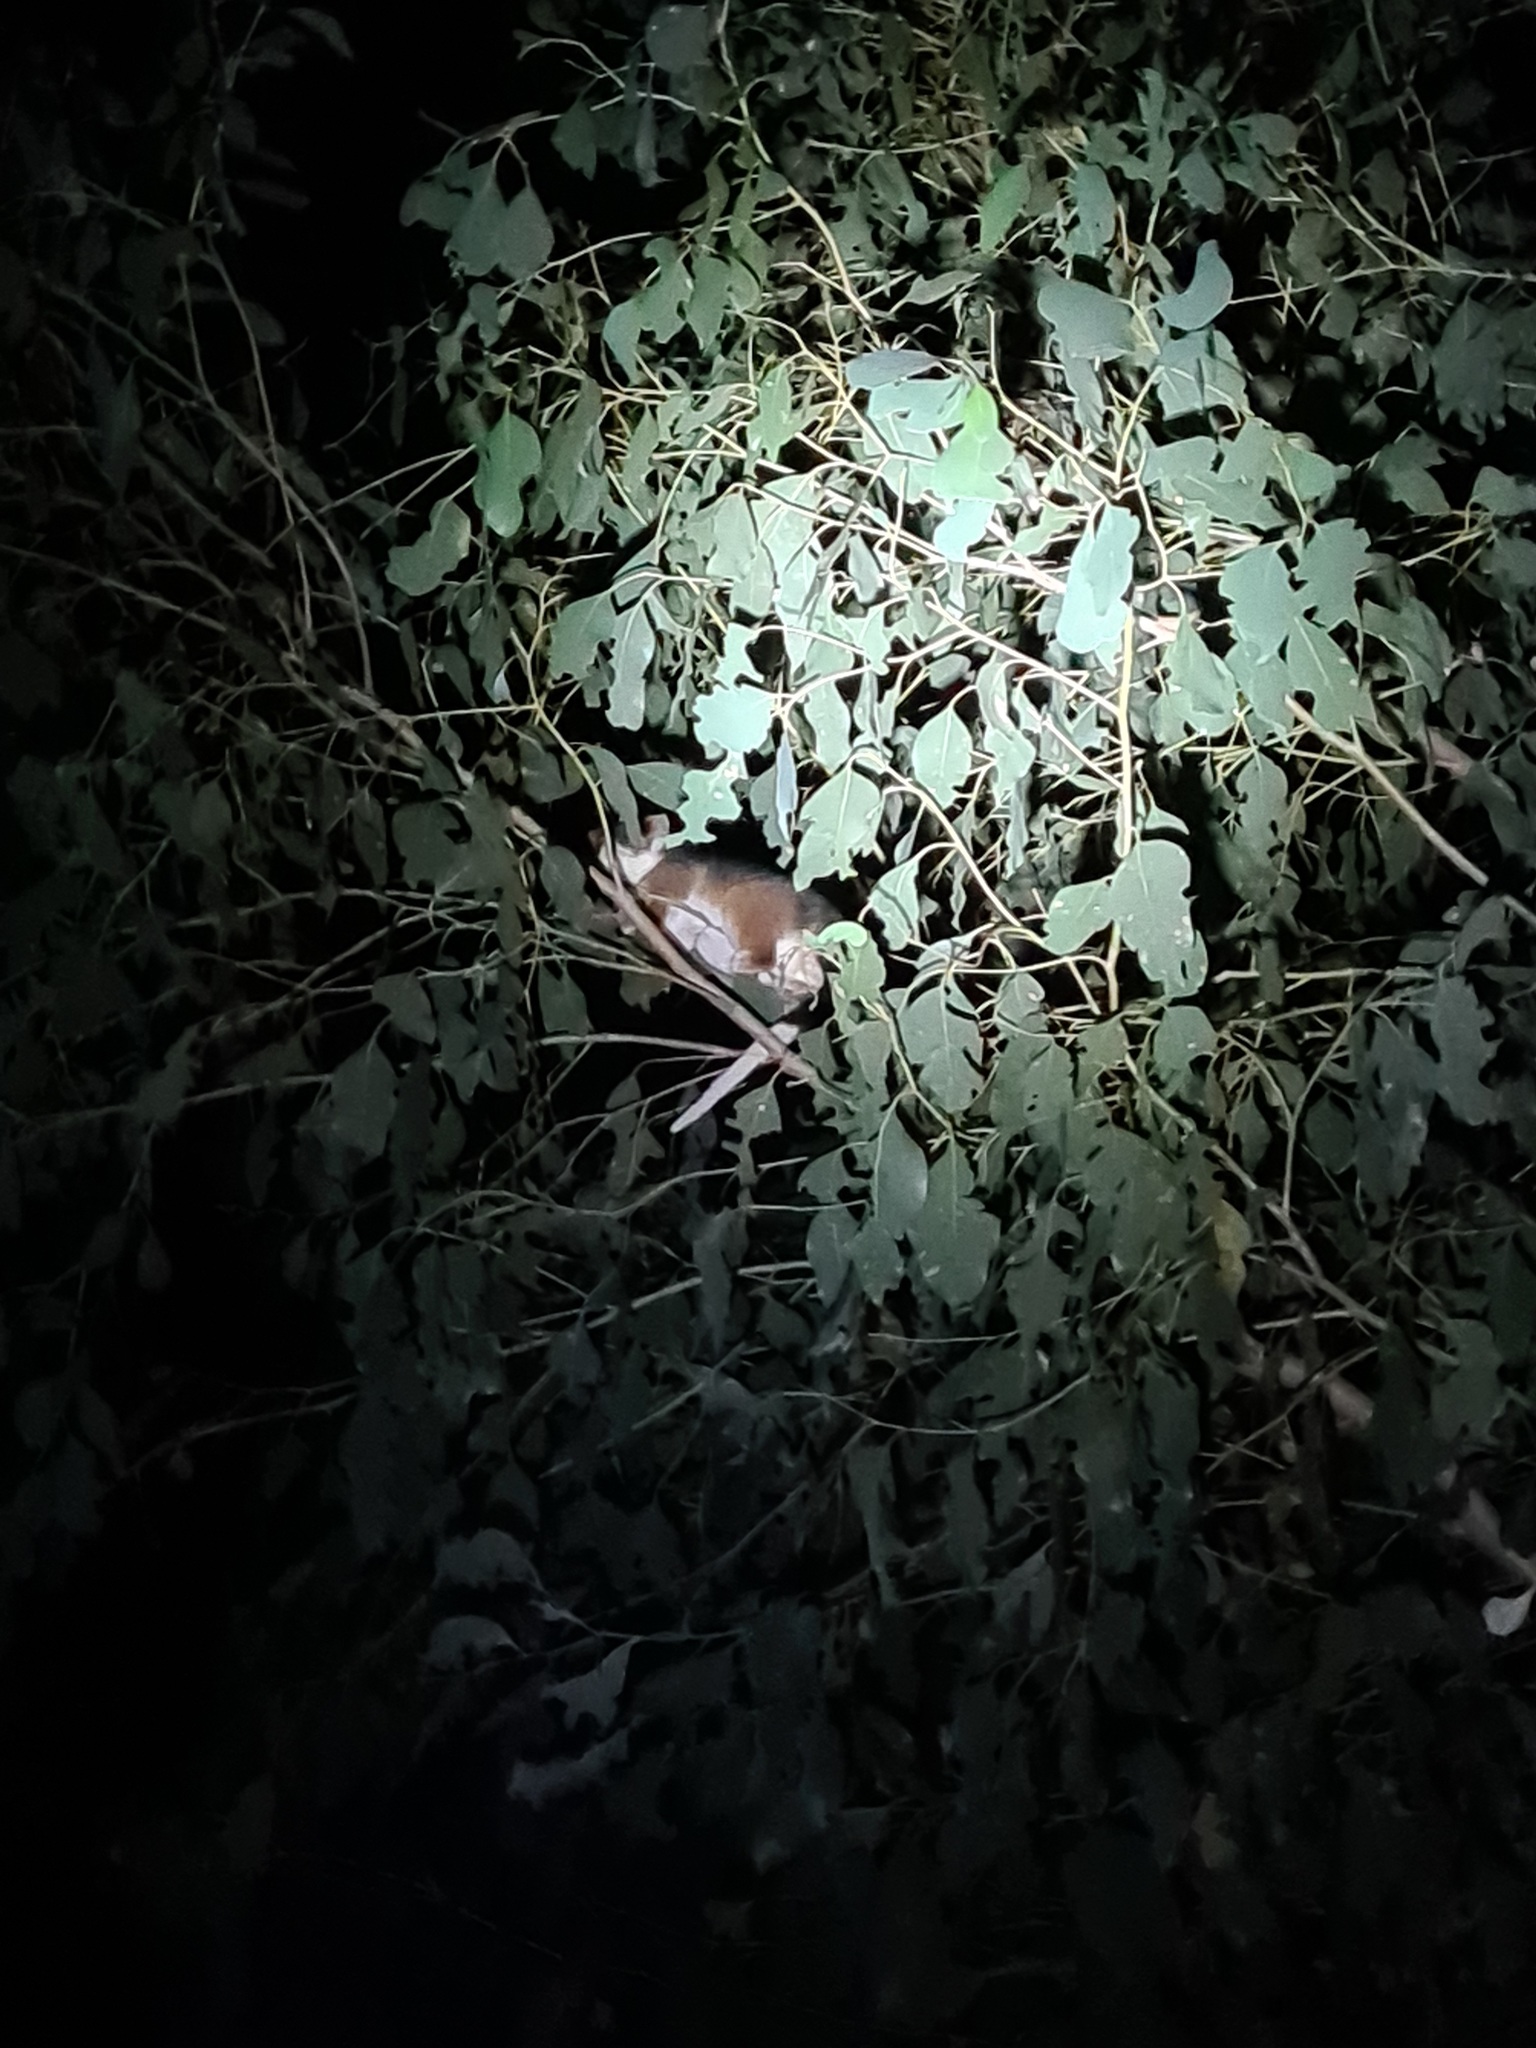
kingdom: Animalia
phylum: Chordata
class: Mammalia
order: Diprotodontia
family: Pseudocheiridae
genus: Pseudocheirus
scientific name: Pseudocheirus peregrinus
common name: Common ringtail possum
